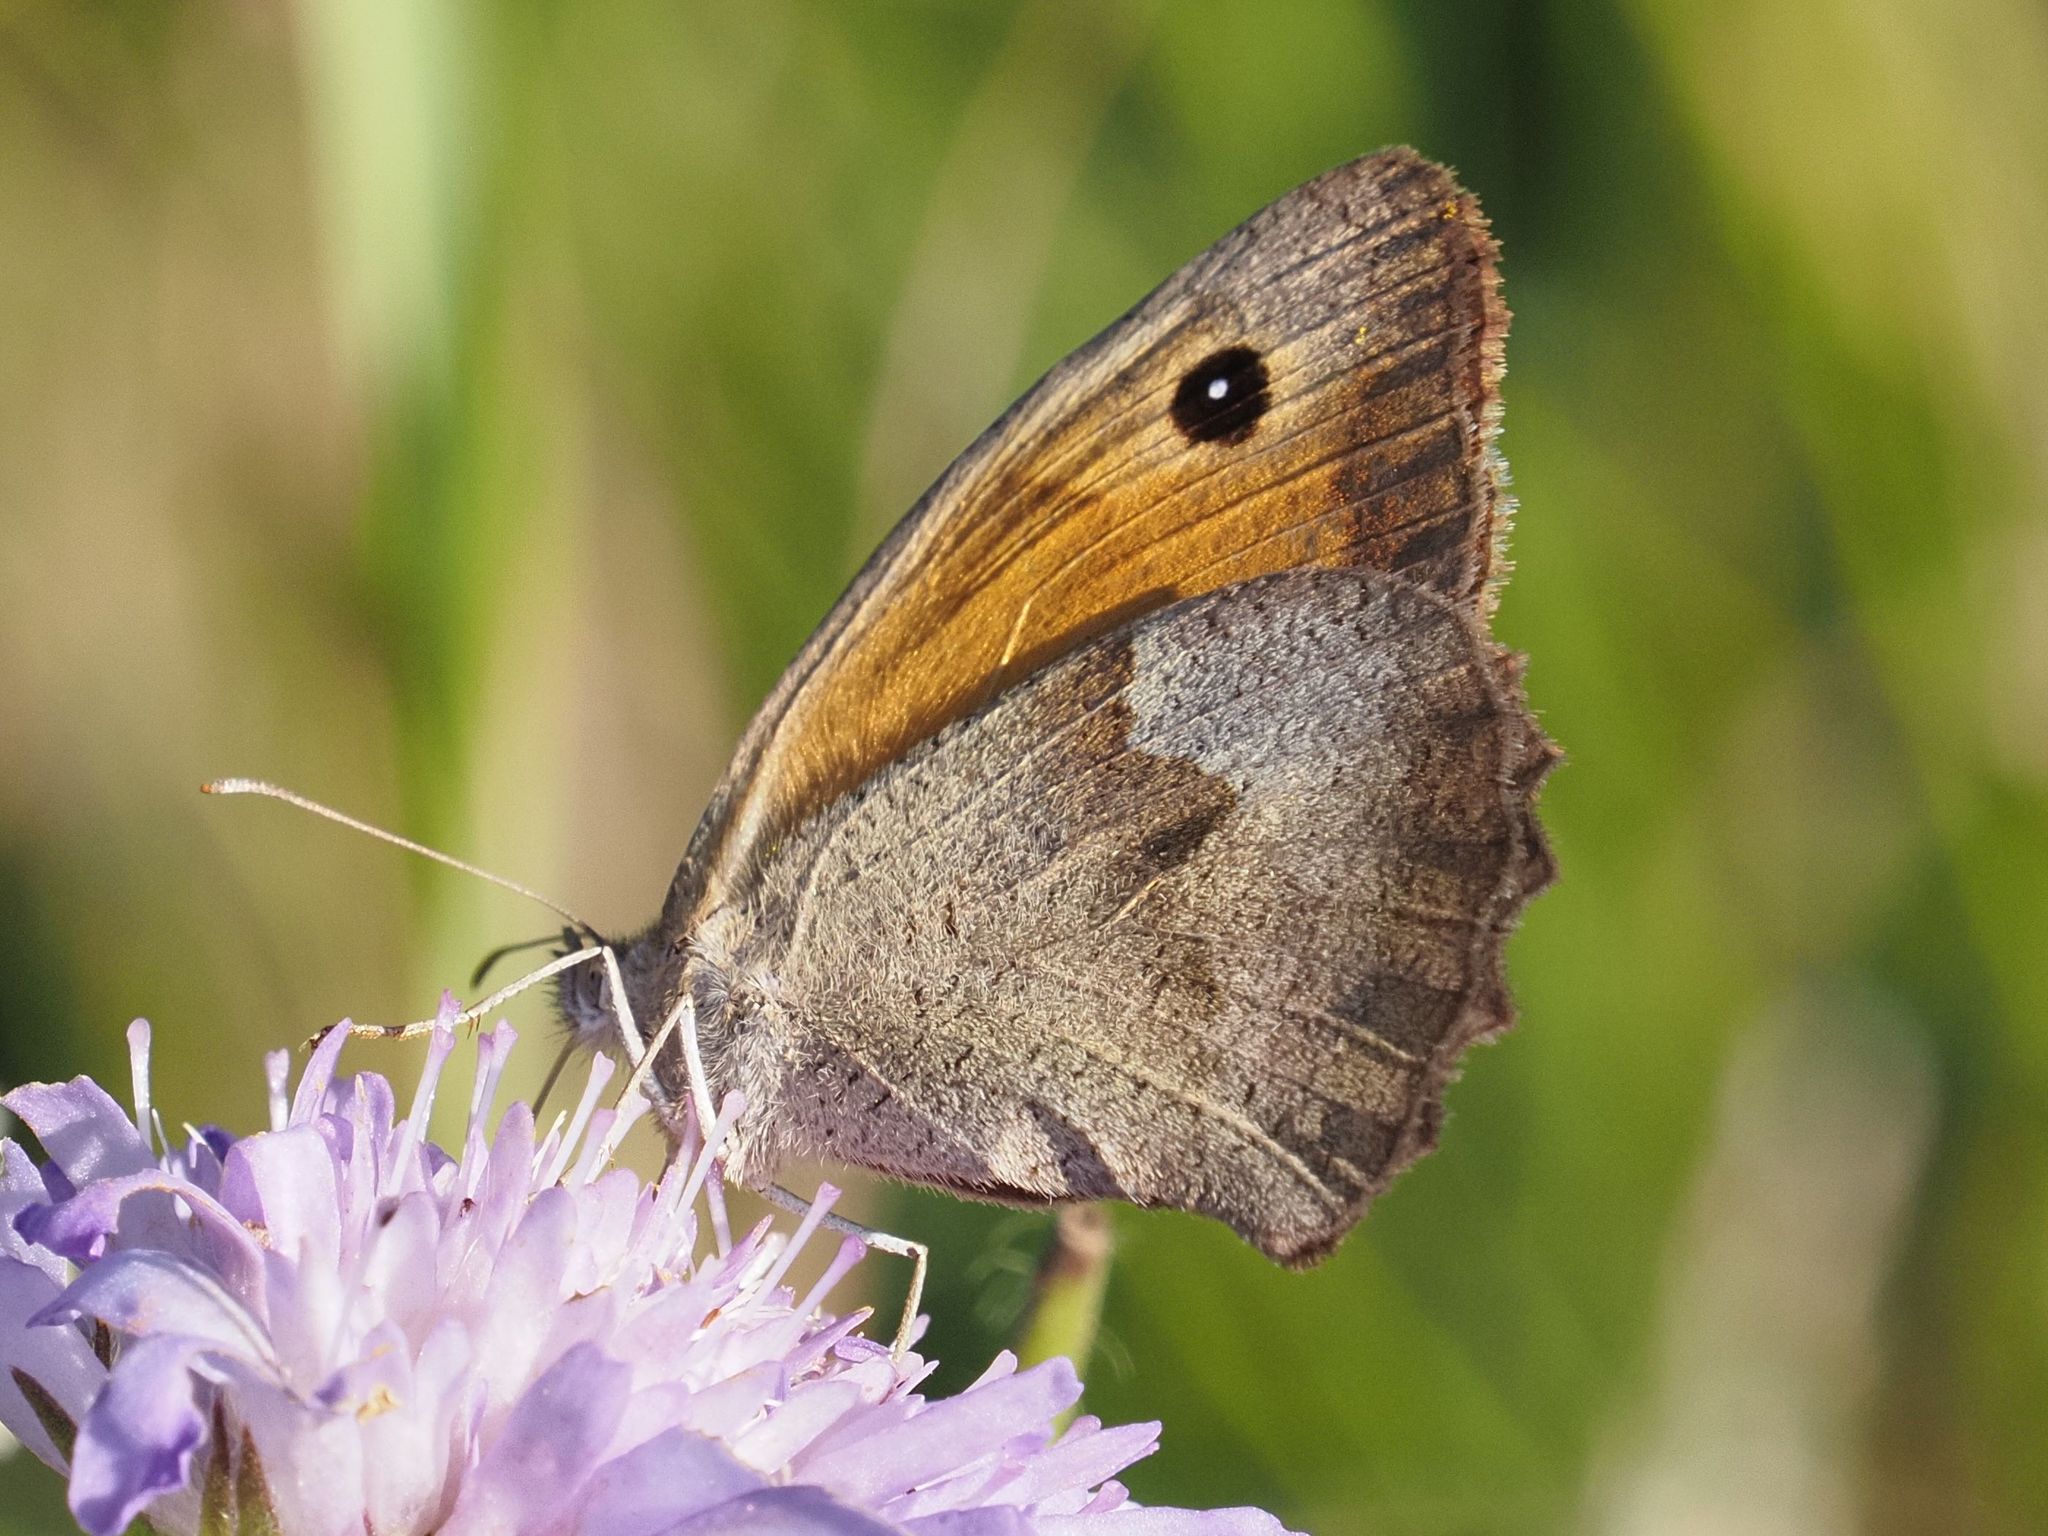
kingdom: Animalia
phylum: Arthropoda
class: Insecta
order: Lepidoptera
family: Nymphalidae
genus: Maniola
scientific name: Maniola jurtina
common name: Meadow brown
